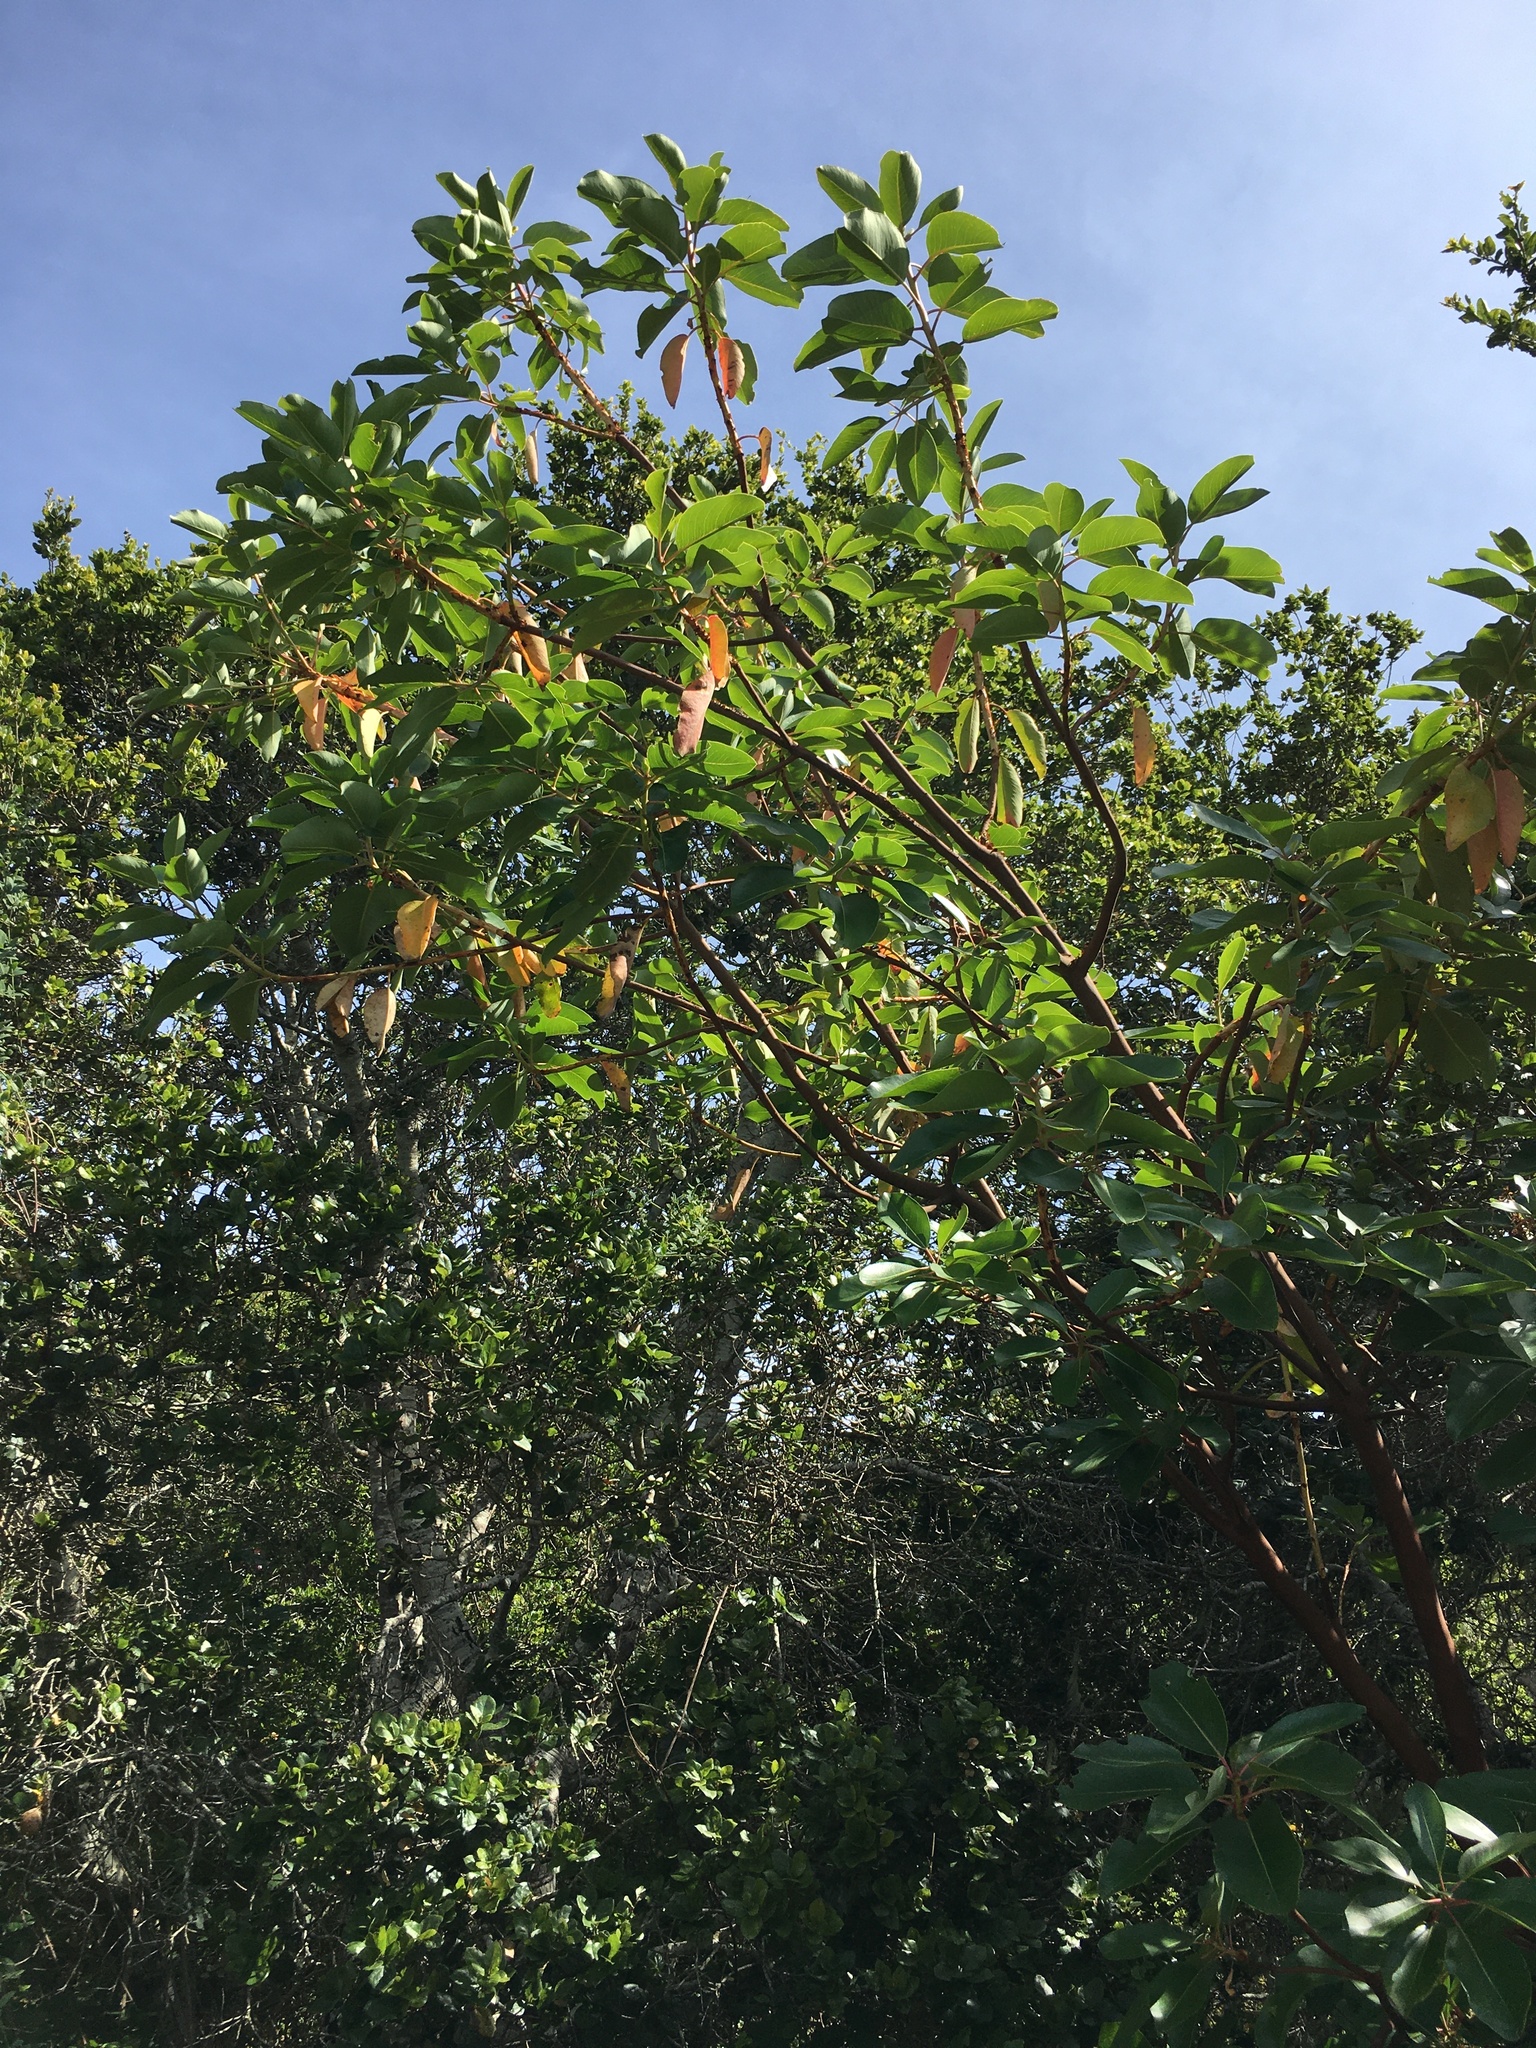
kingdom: Plantae
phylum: Tracheophyta
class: Magnoliopsida
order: Ericales
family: Ericaceae
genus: Arbutus
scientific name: Arbutus menziesii
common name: Pacific madrone
